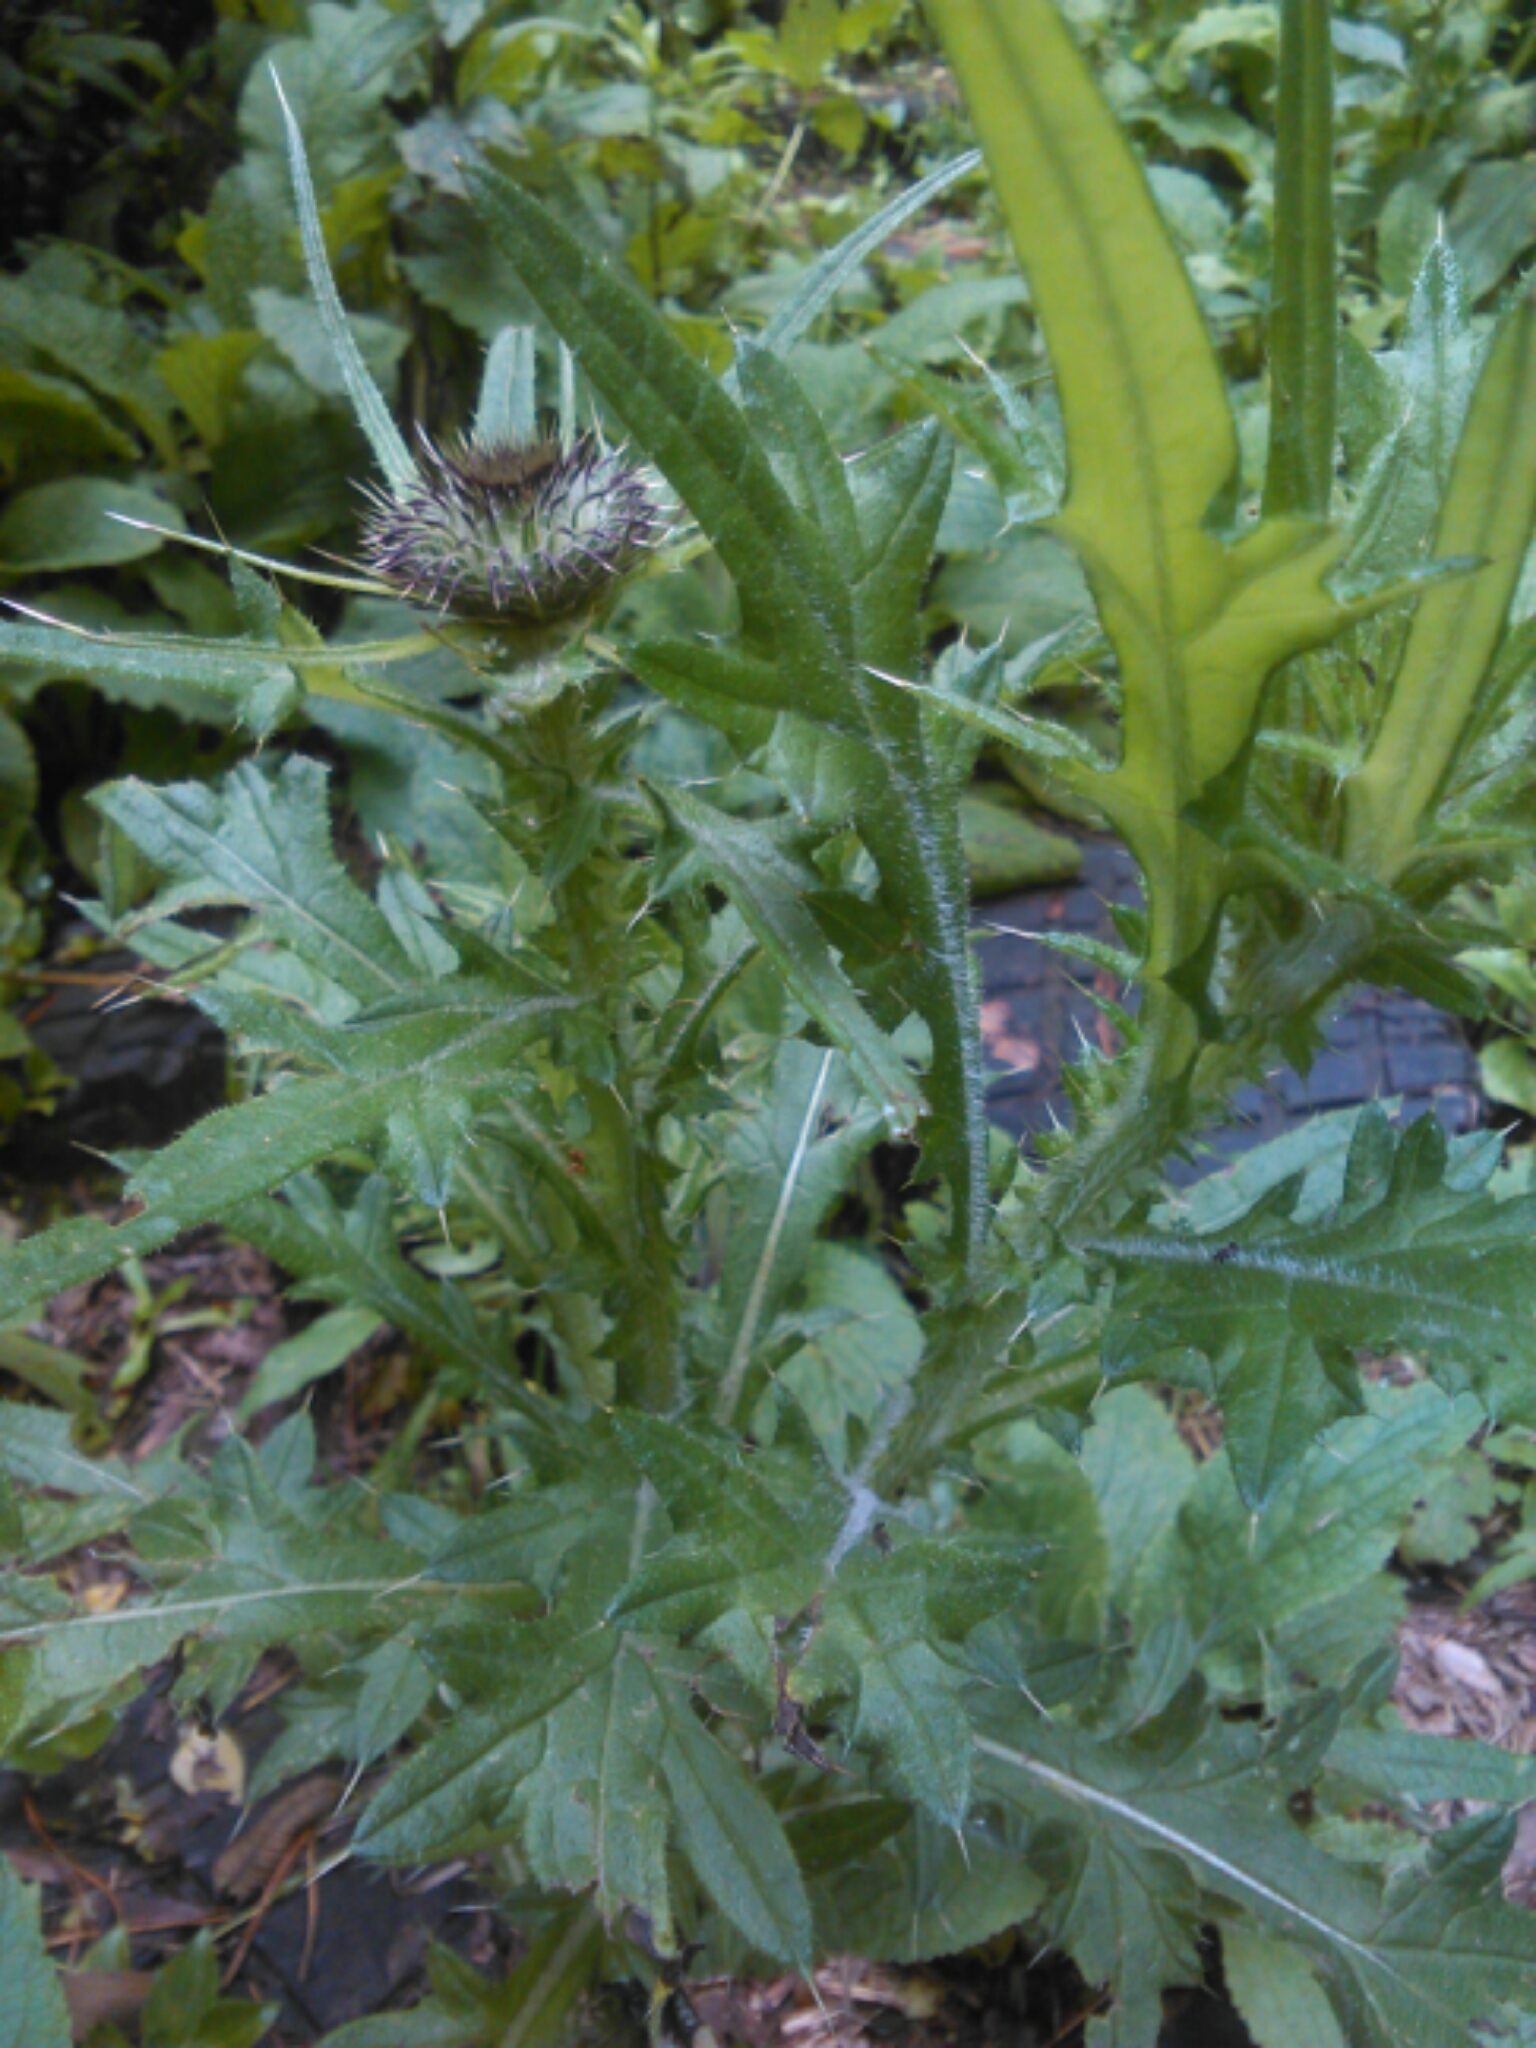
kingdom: Plantae
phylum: Tracheophyta
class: Magnoliopsida
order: Asterales
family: Asteraceae
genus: Cirsium
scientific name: Cirsium vulgare
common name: Bull thistle
